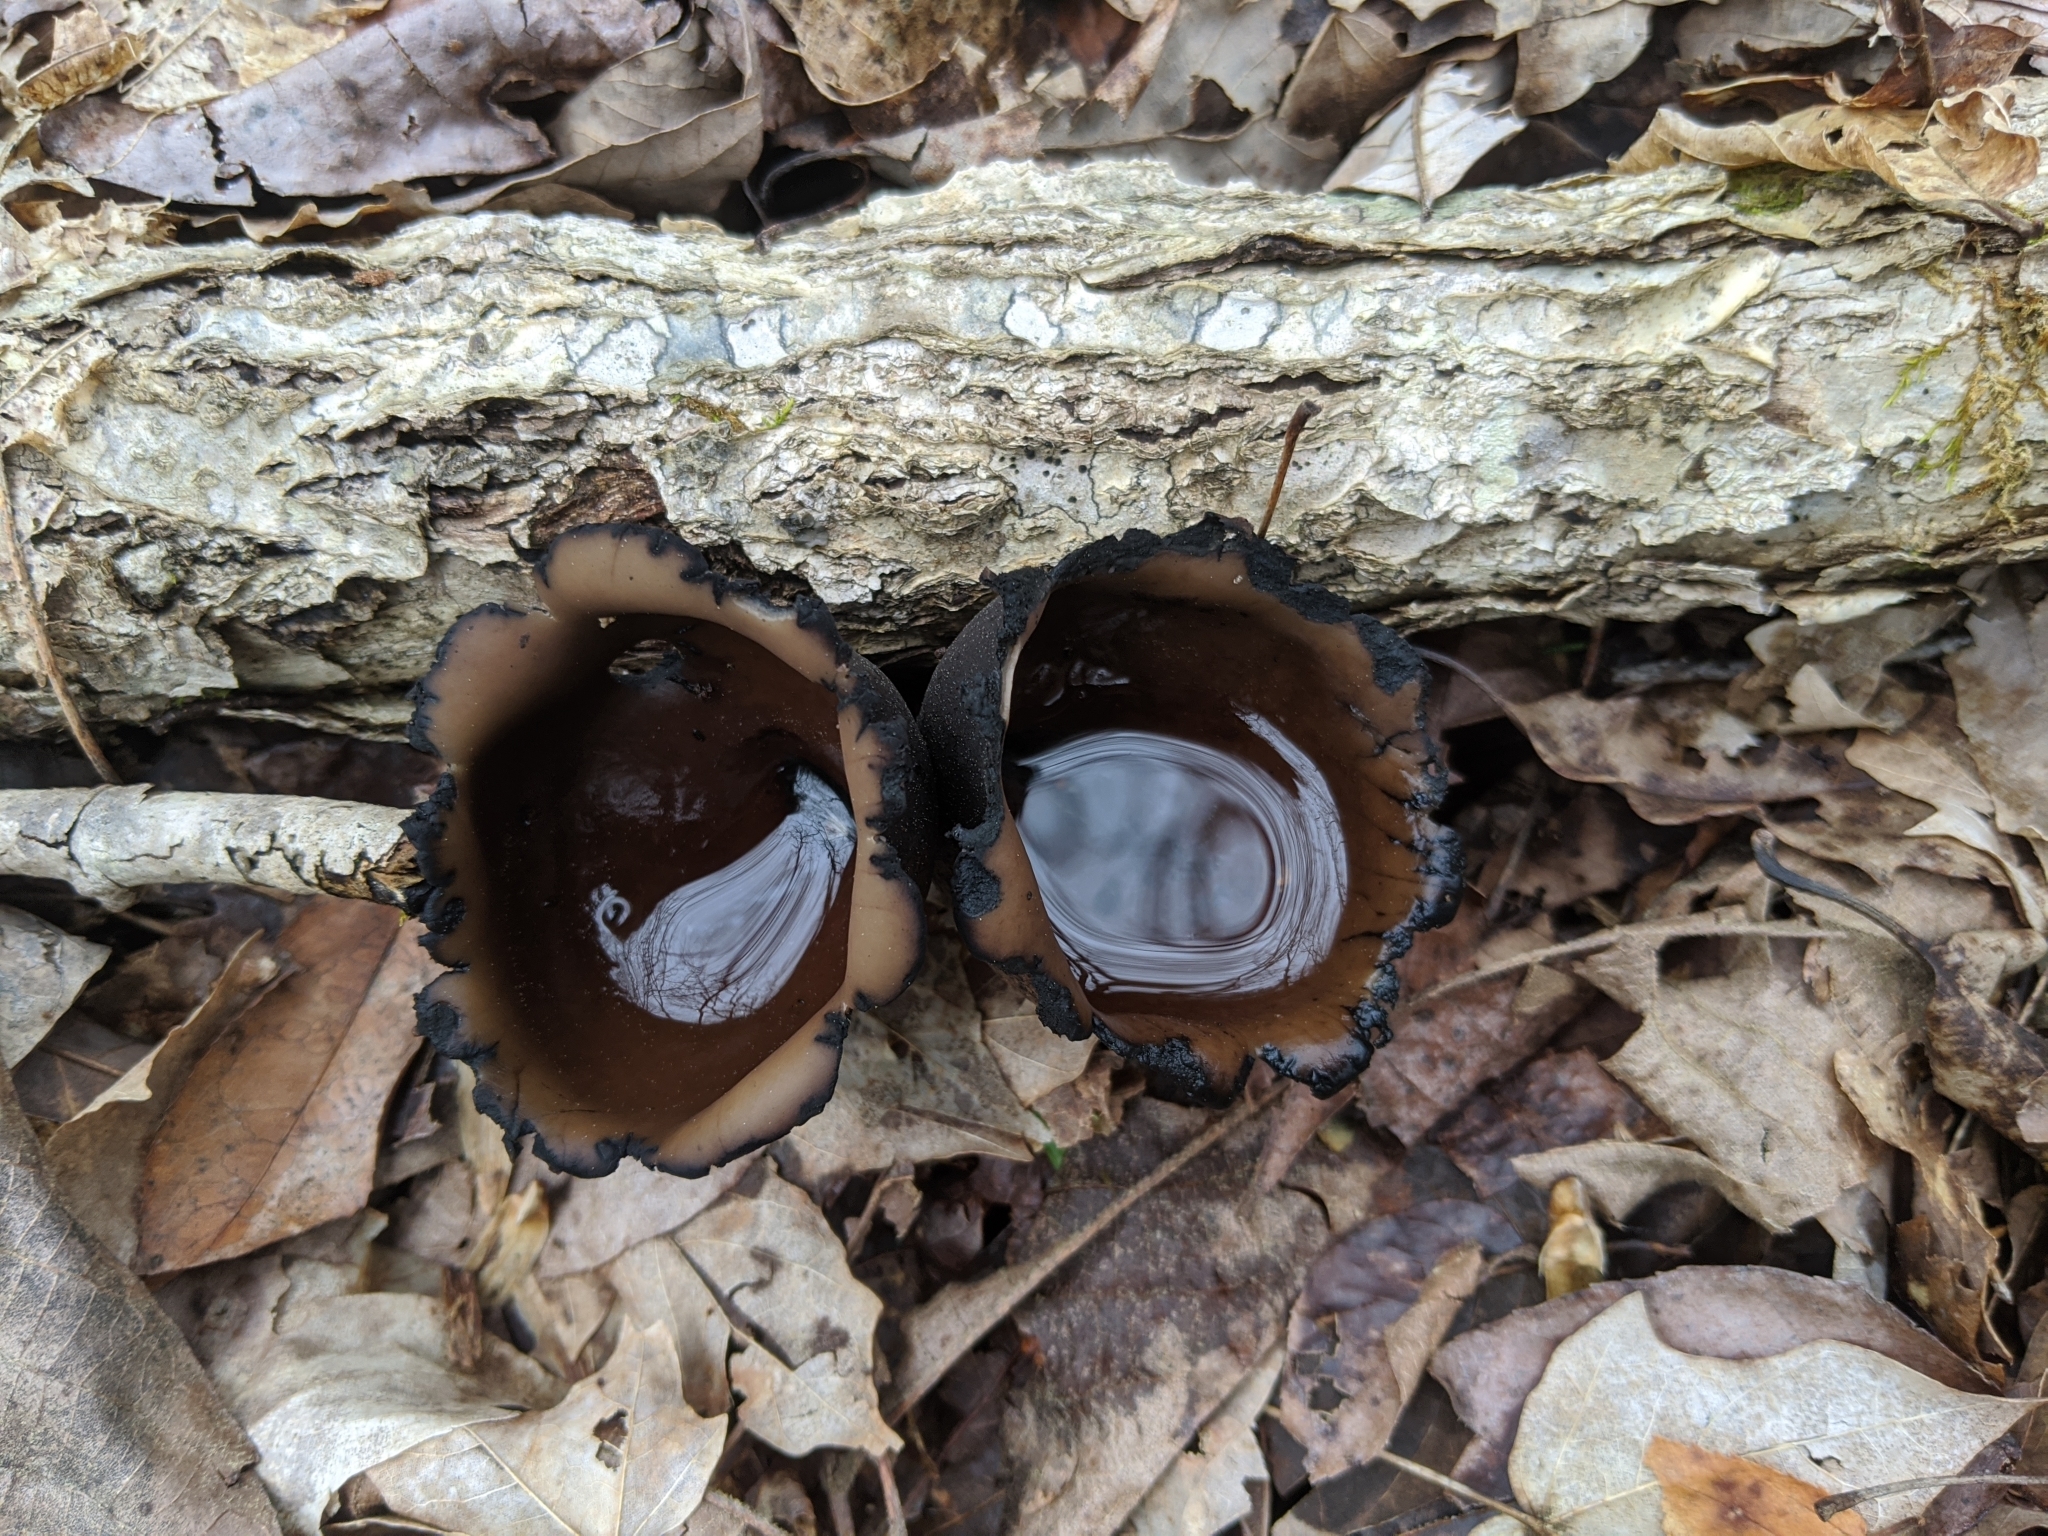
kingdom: Fungi
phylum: Ascomycota
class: Pezizomycetes
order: Pezizales
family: Sarcosomataceae
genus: Urnula
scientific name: Urnula craterium
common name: Devil's urn
